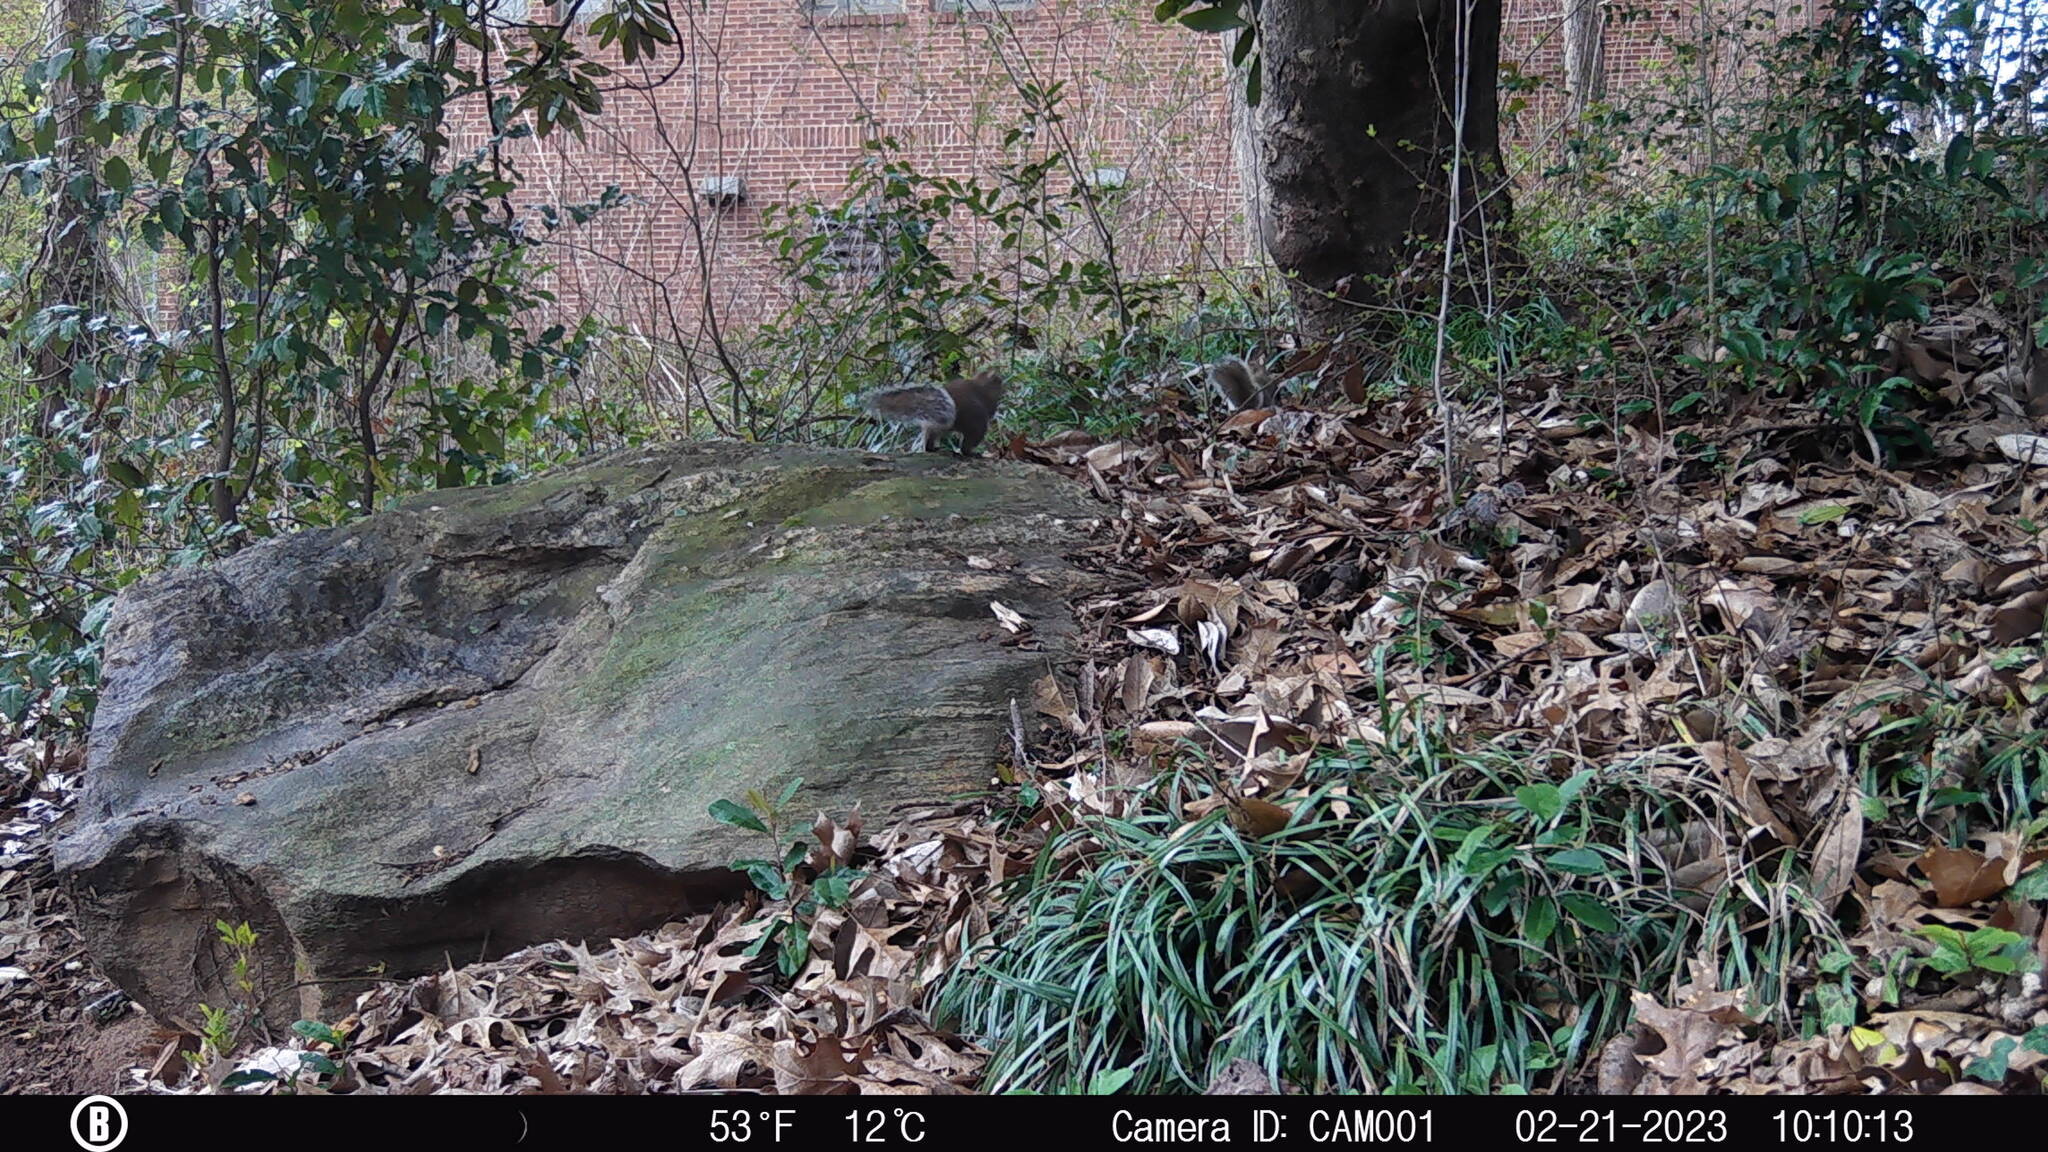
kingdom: Animalia
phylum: Chordata
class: Mammalia
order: Rodentia
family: Sciuridae
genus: Sciurus
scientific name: Sciurus carolinensis
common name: Eastern gray squirrel
